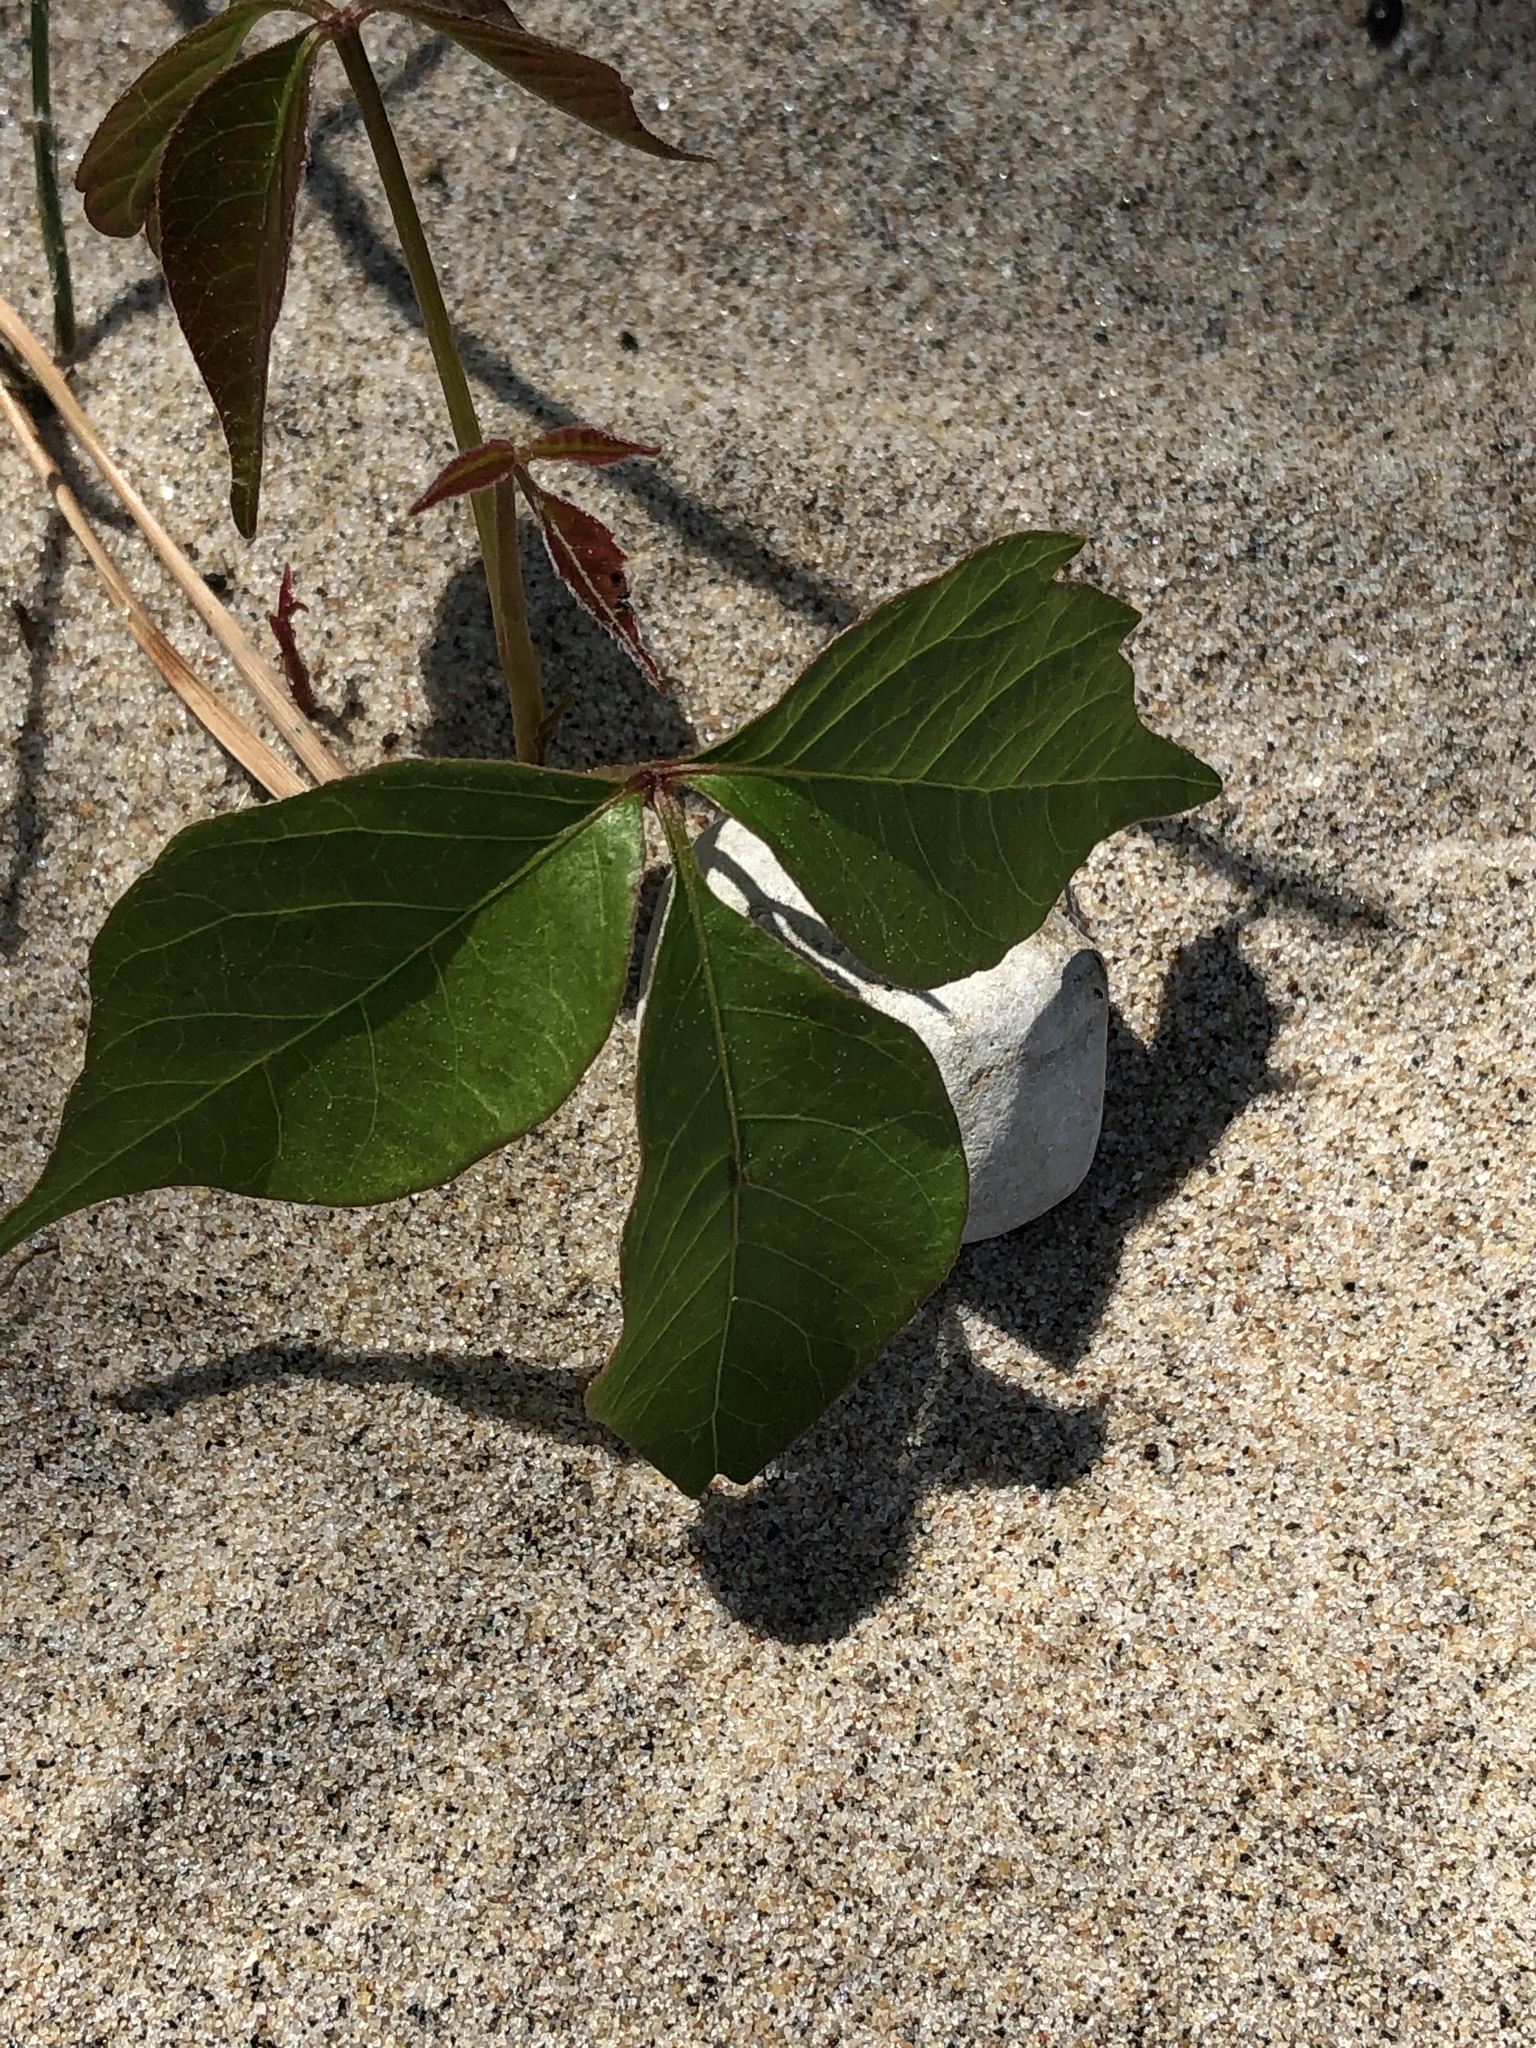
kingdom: Plantae
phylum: Tracheophyta
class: Magnoliopsida
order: Sapindales
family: Anacardiaceae
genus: Toxicodendron
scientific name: Toxicodendron rydbergii
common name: Rydberg's poison-ivy
